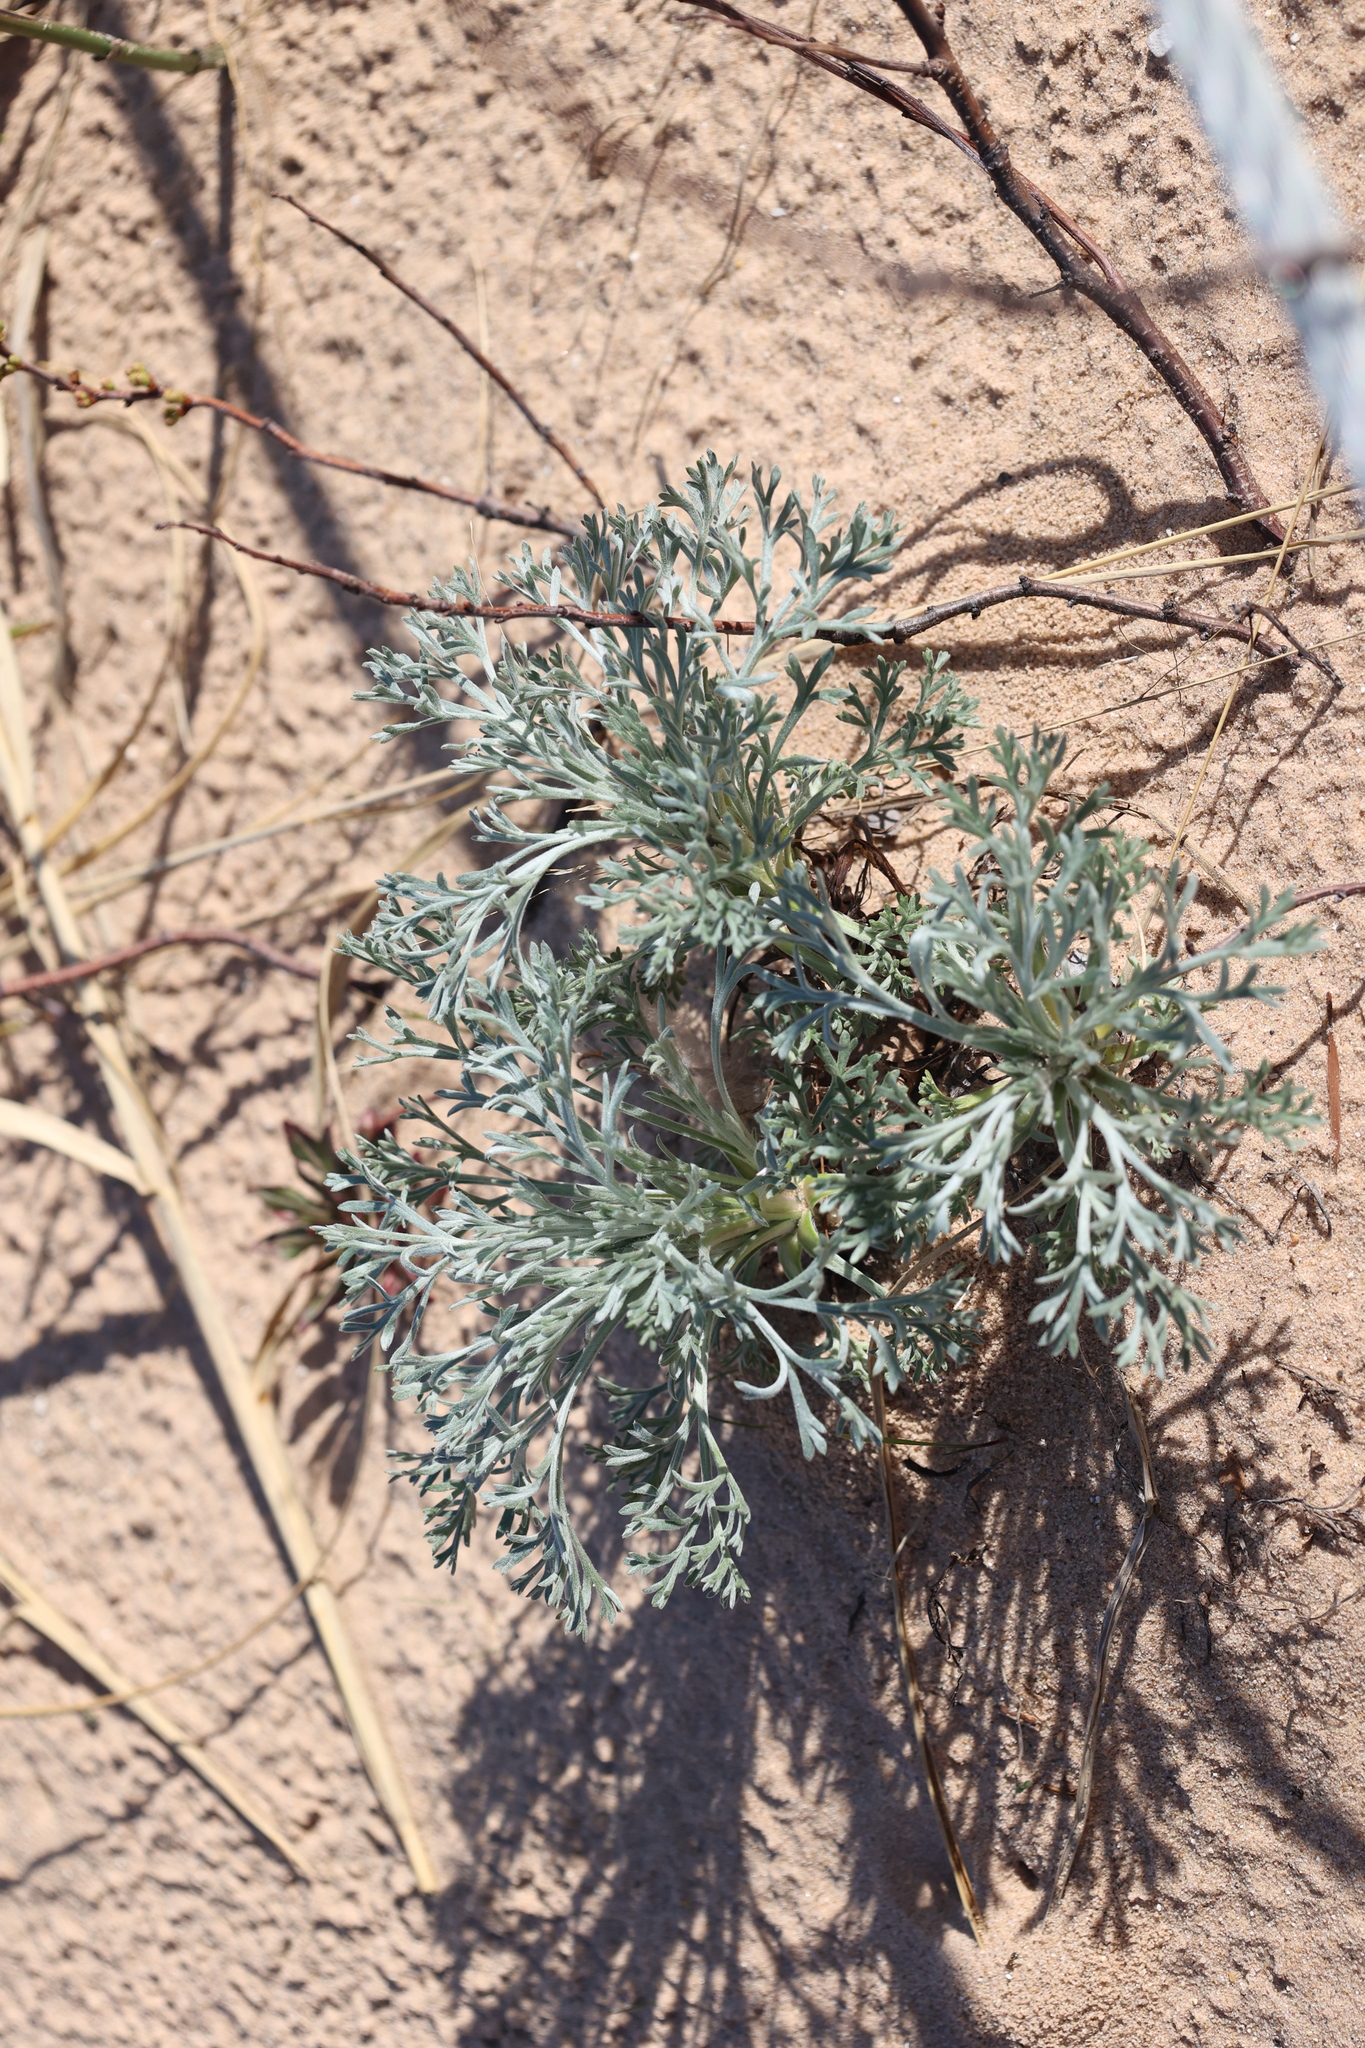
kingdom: Plantae
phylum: Tracheophyta
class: Magnoliopsida
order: Asterales
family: Asteraceae
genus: Artemisia
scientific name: Artemisia campestris
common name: Field wormwood
